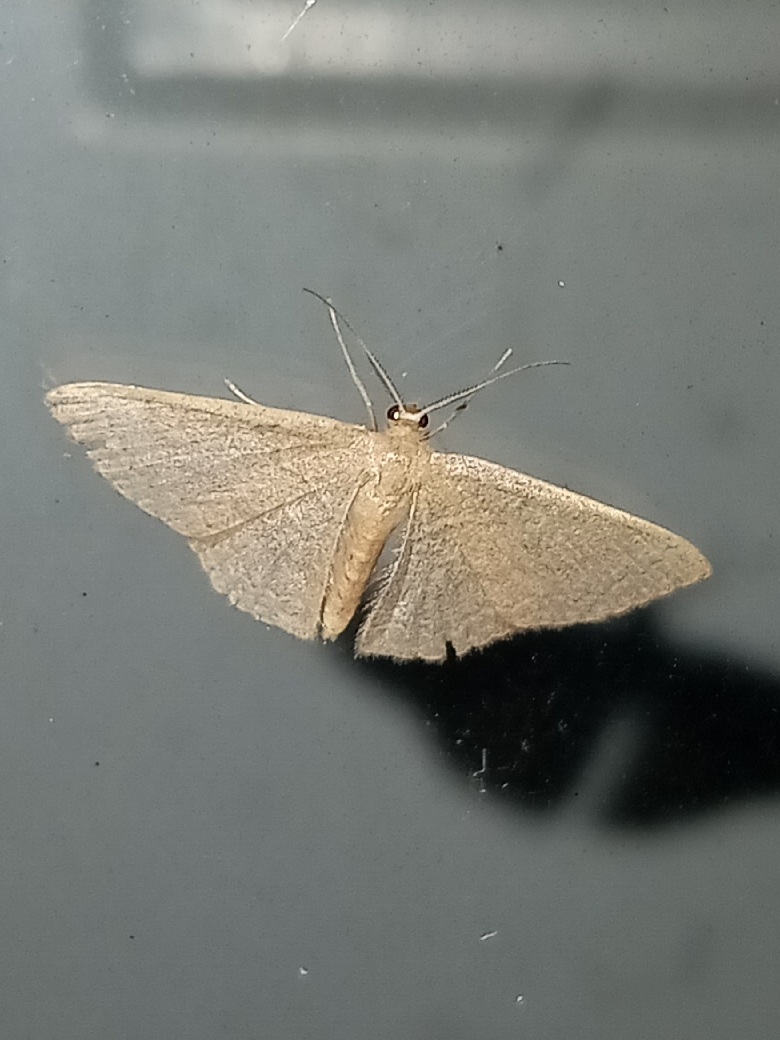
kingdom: Animalia
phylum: Arthropoda
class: Insecta
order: Lepidoptera
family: Geometridae
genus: Pleuroprucha
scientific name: Pleuroprucha insulsaria
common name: Common tan wave
